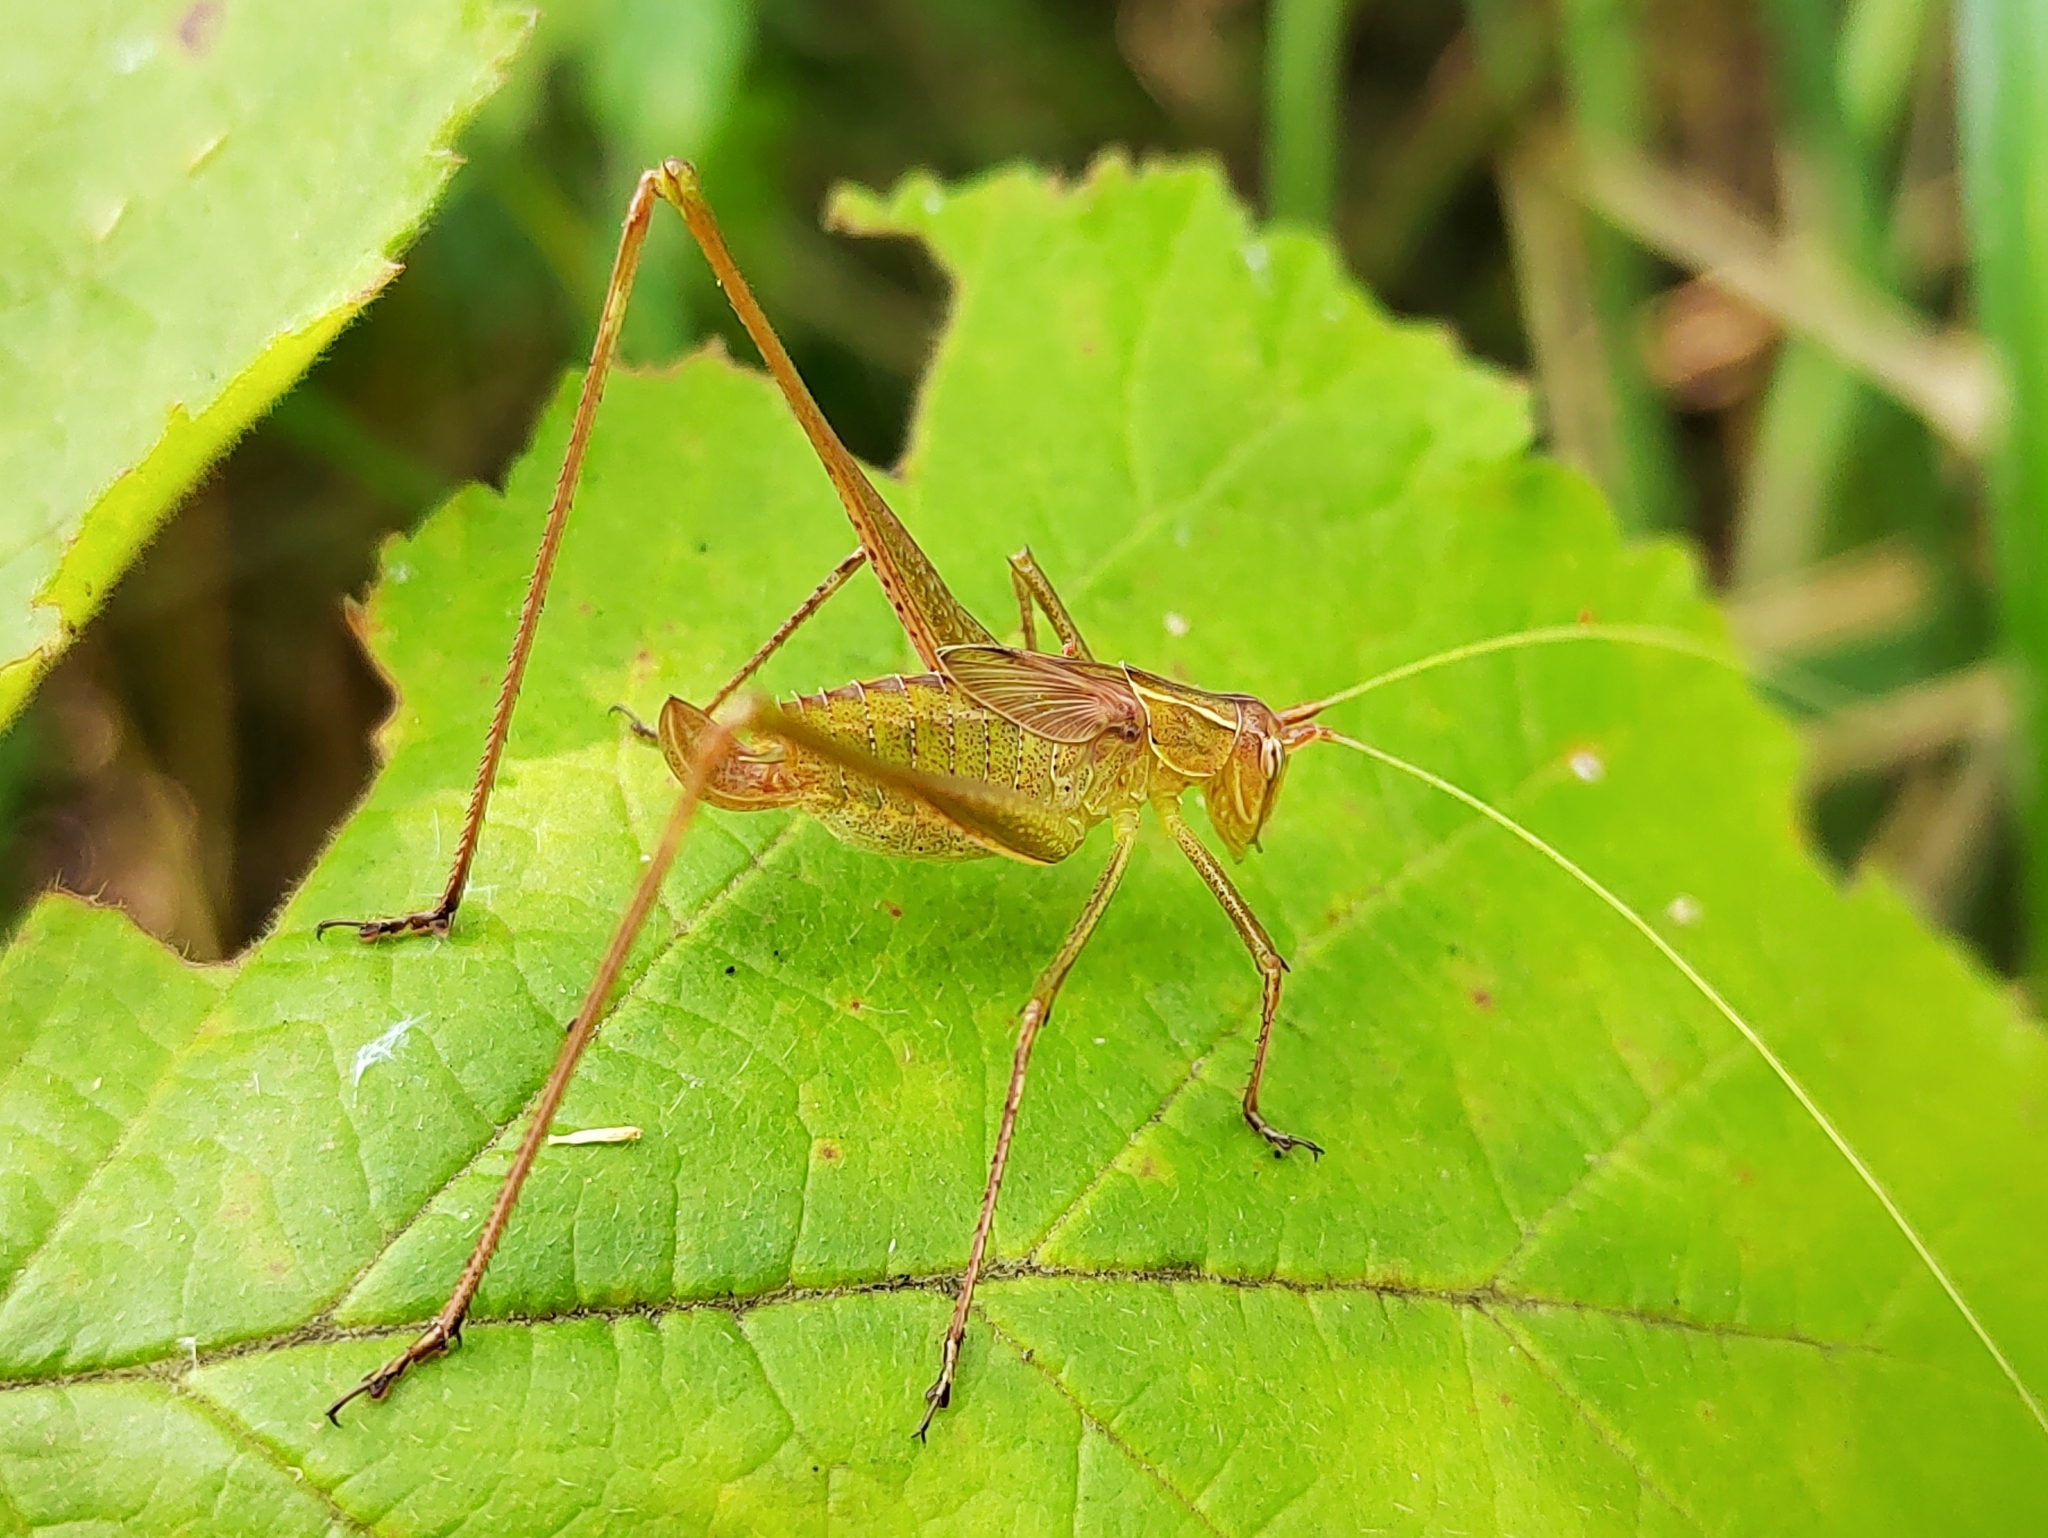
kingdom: Animalia
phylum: Arthropoda
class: Insecta
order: Orthoptera
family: Tettigoniidae
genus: Tylopsis
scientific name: Tylopsis
